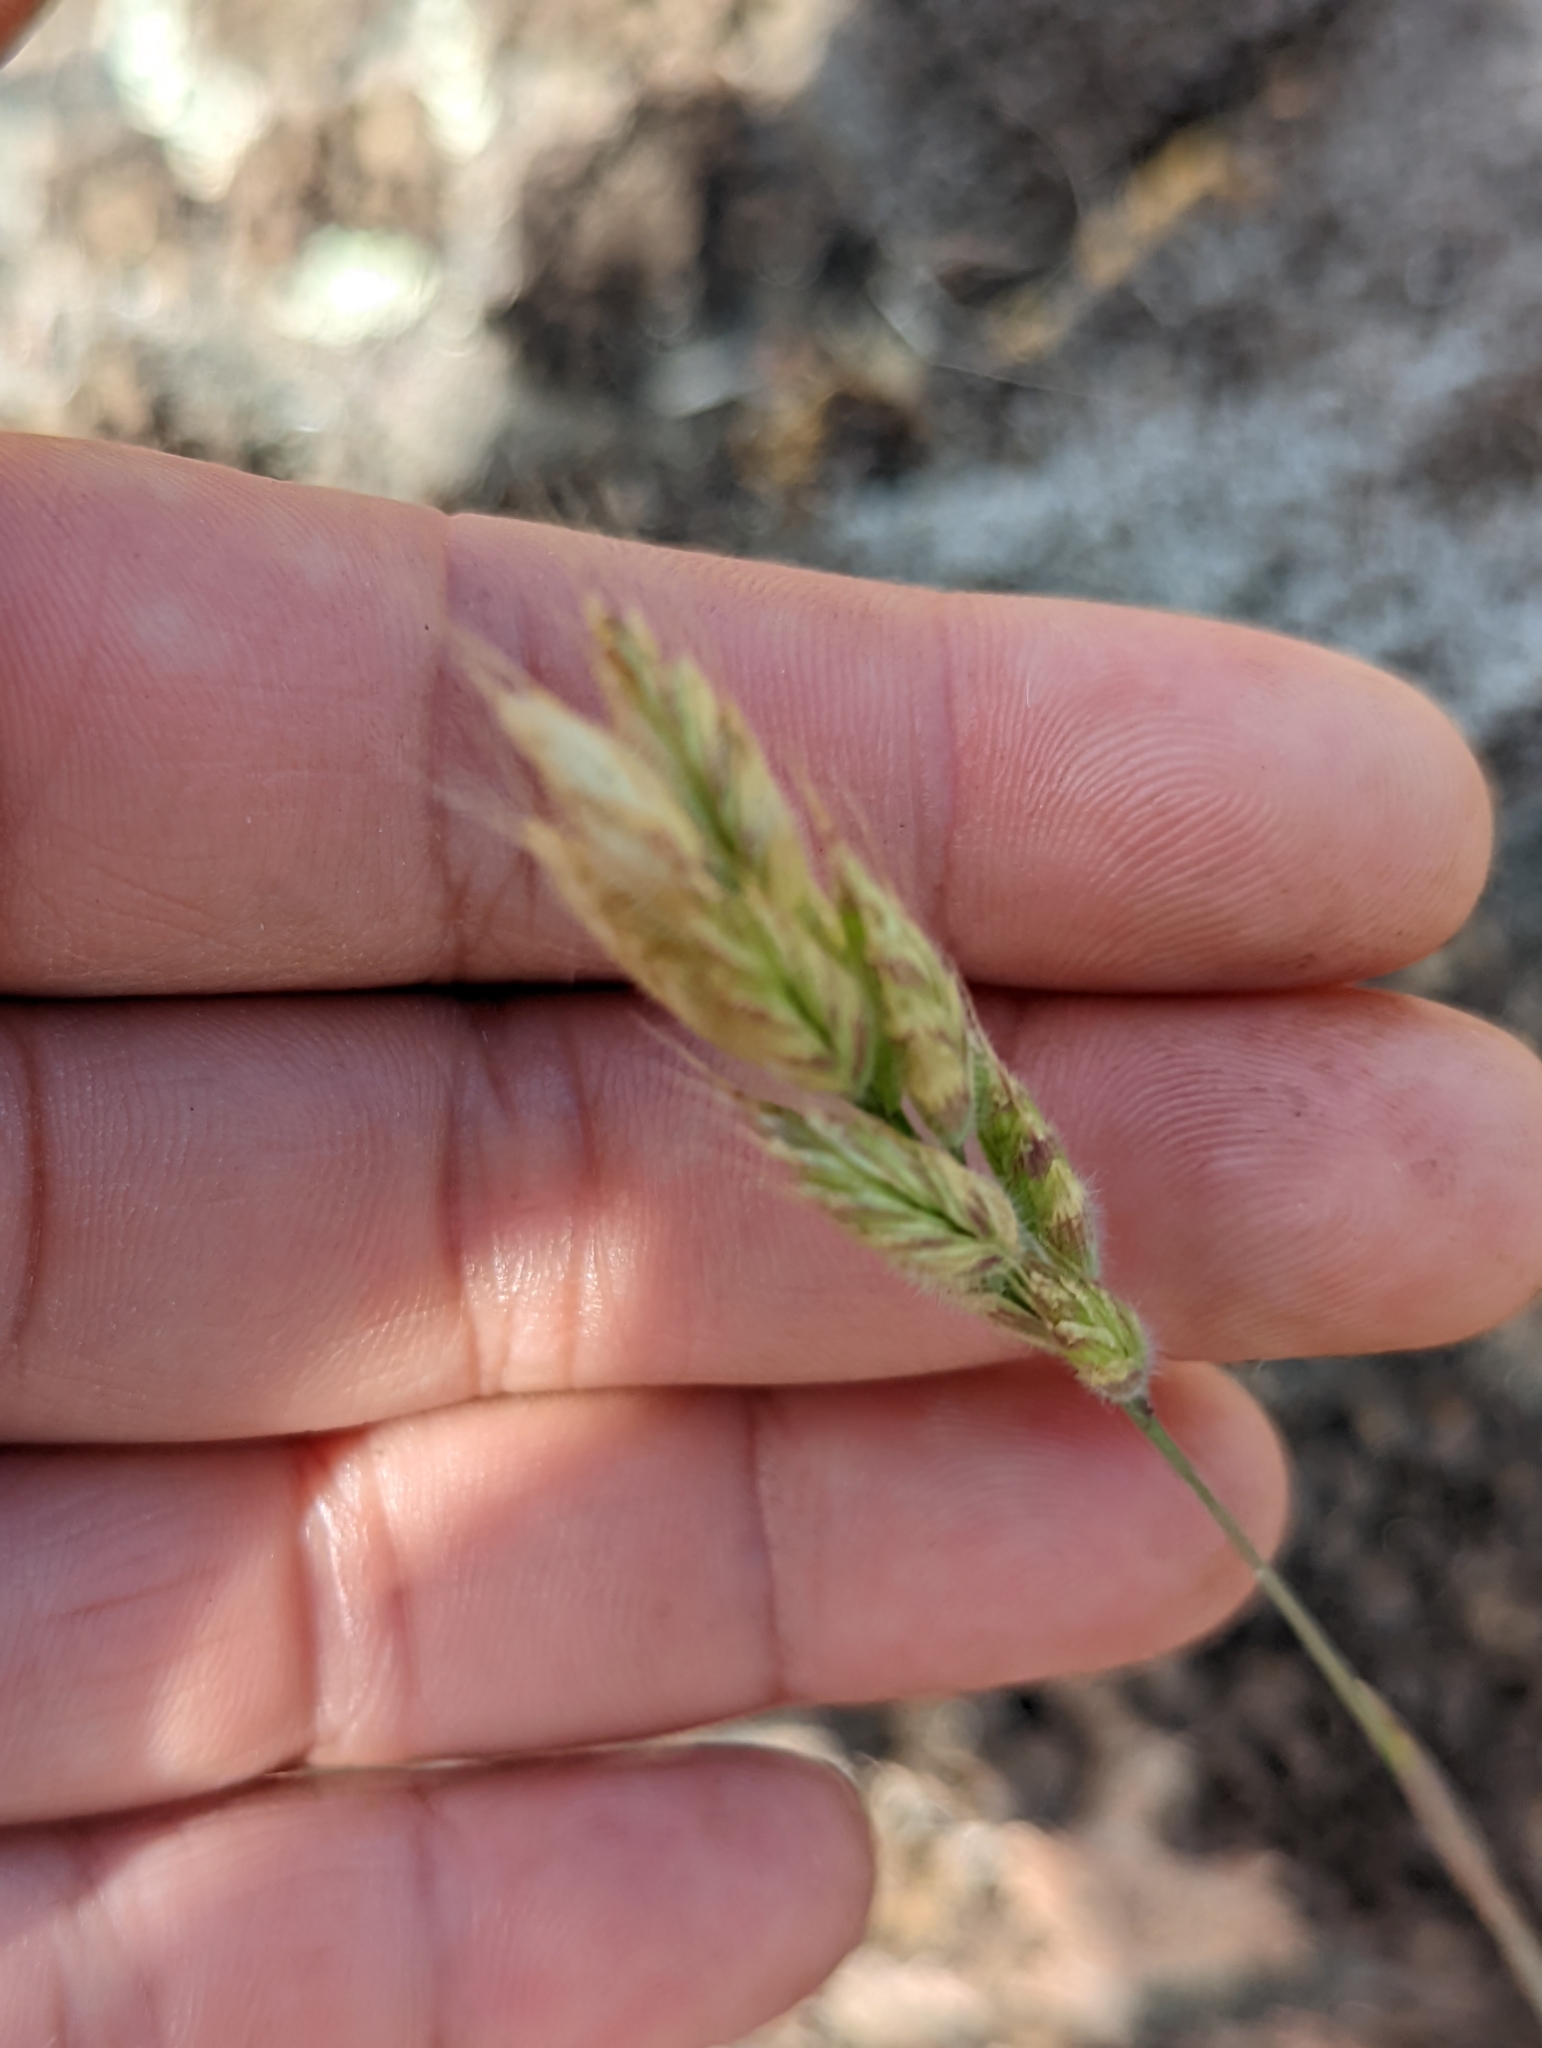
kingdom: Plantae
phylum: Tracheophyta
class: Liliopsida
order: Poales
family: Poaceae
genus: Bromus
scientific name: Bromus hordeaceus
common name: Soft brome
